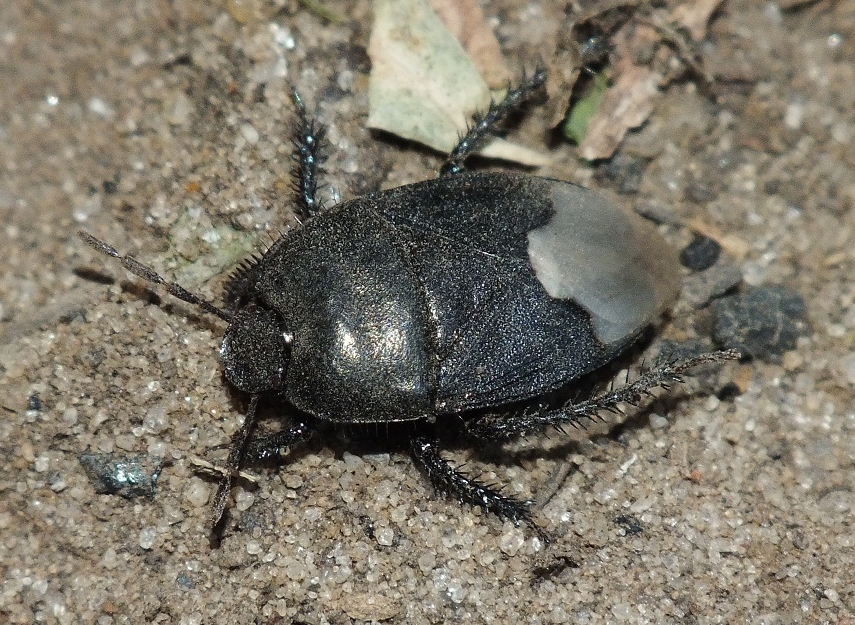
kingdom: Animalia
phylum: Arthropoda
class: Insecta
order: Hemiptera
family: Cydnidae
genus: Cydnus
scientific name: Cydnus aterrimus
